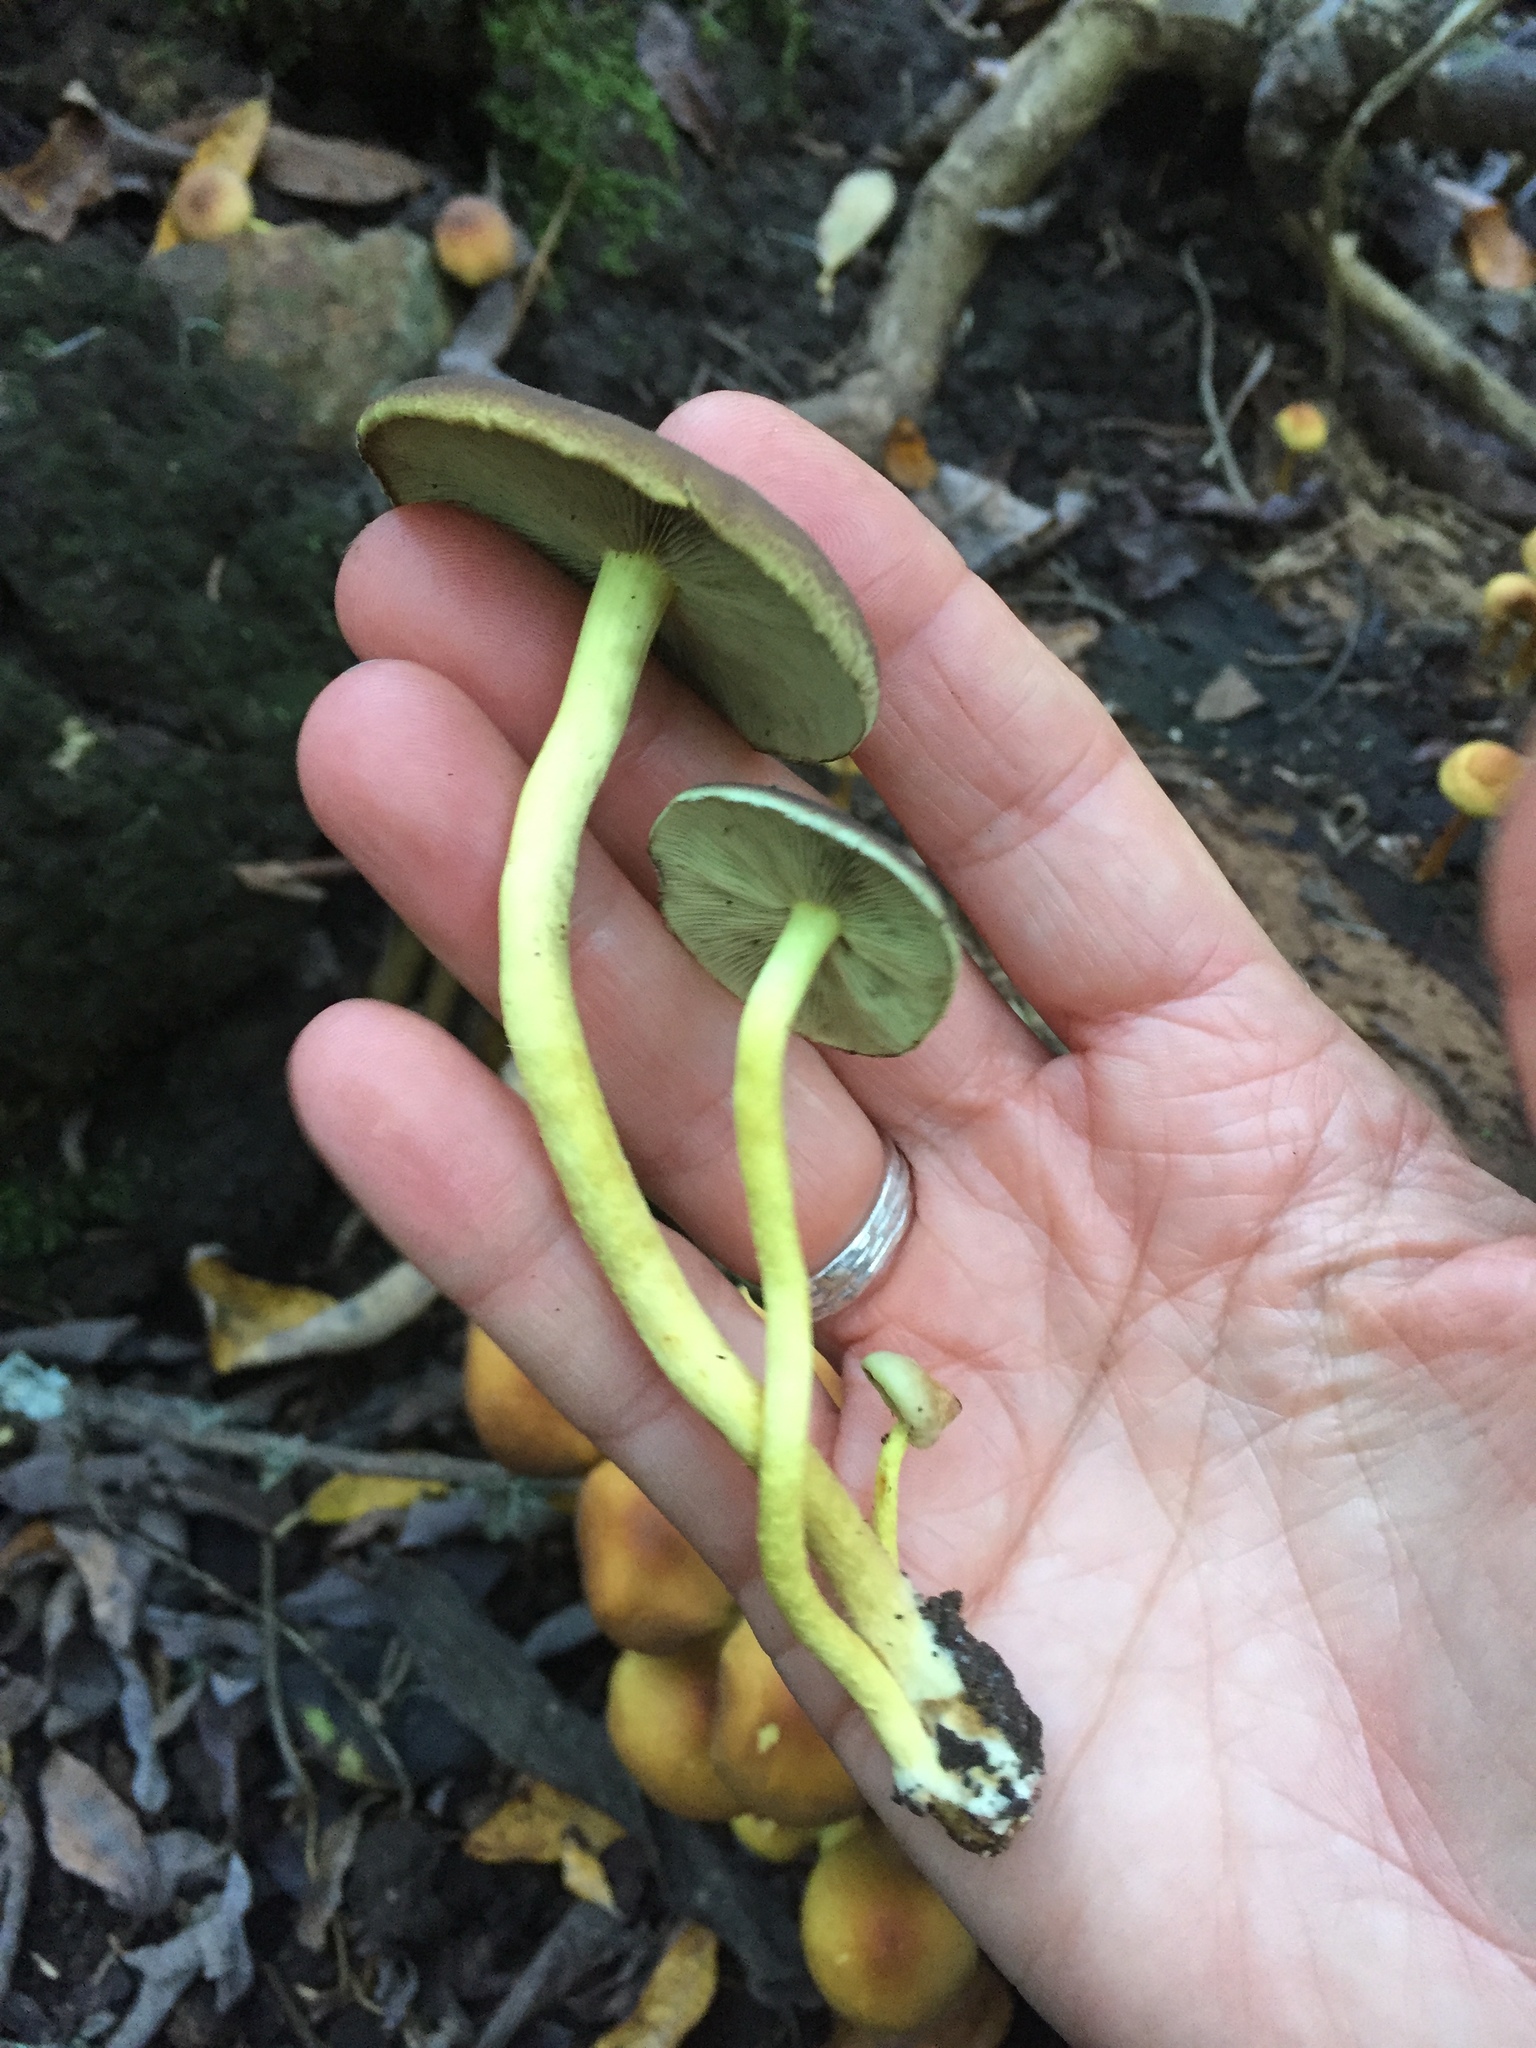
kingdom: Fungi
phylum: Basidiomycota
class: Agaricomycetes
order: Agaricales
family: Strophariaceae
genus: Hypholoma
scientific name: Hypholoma fasciculare
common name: Sulphur tuft
